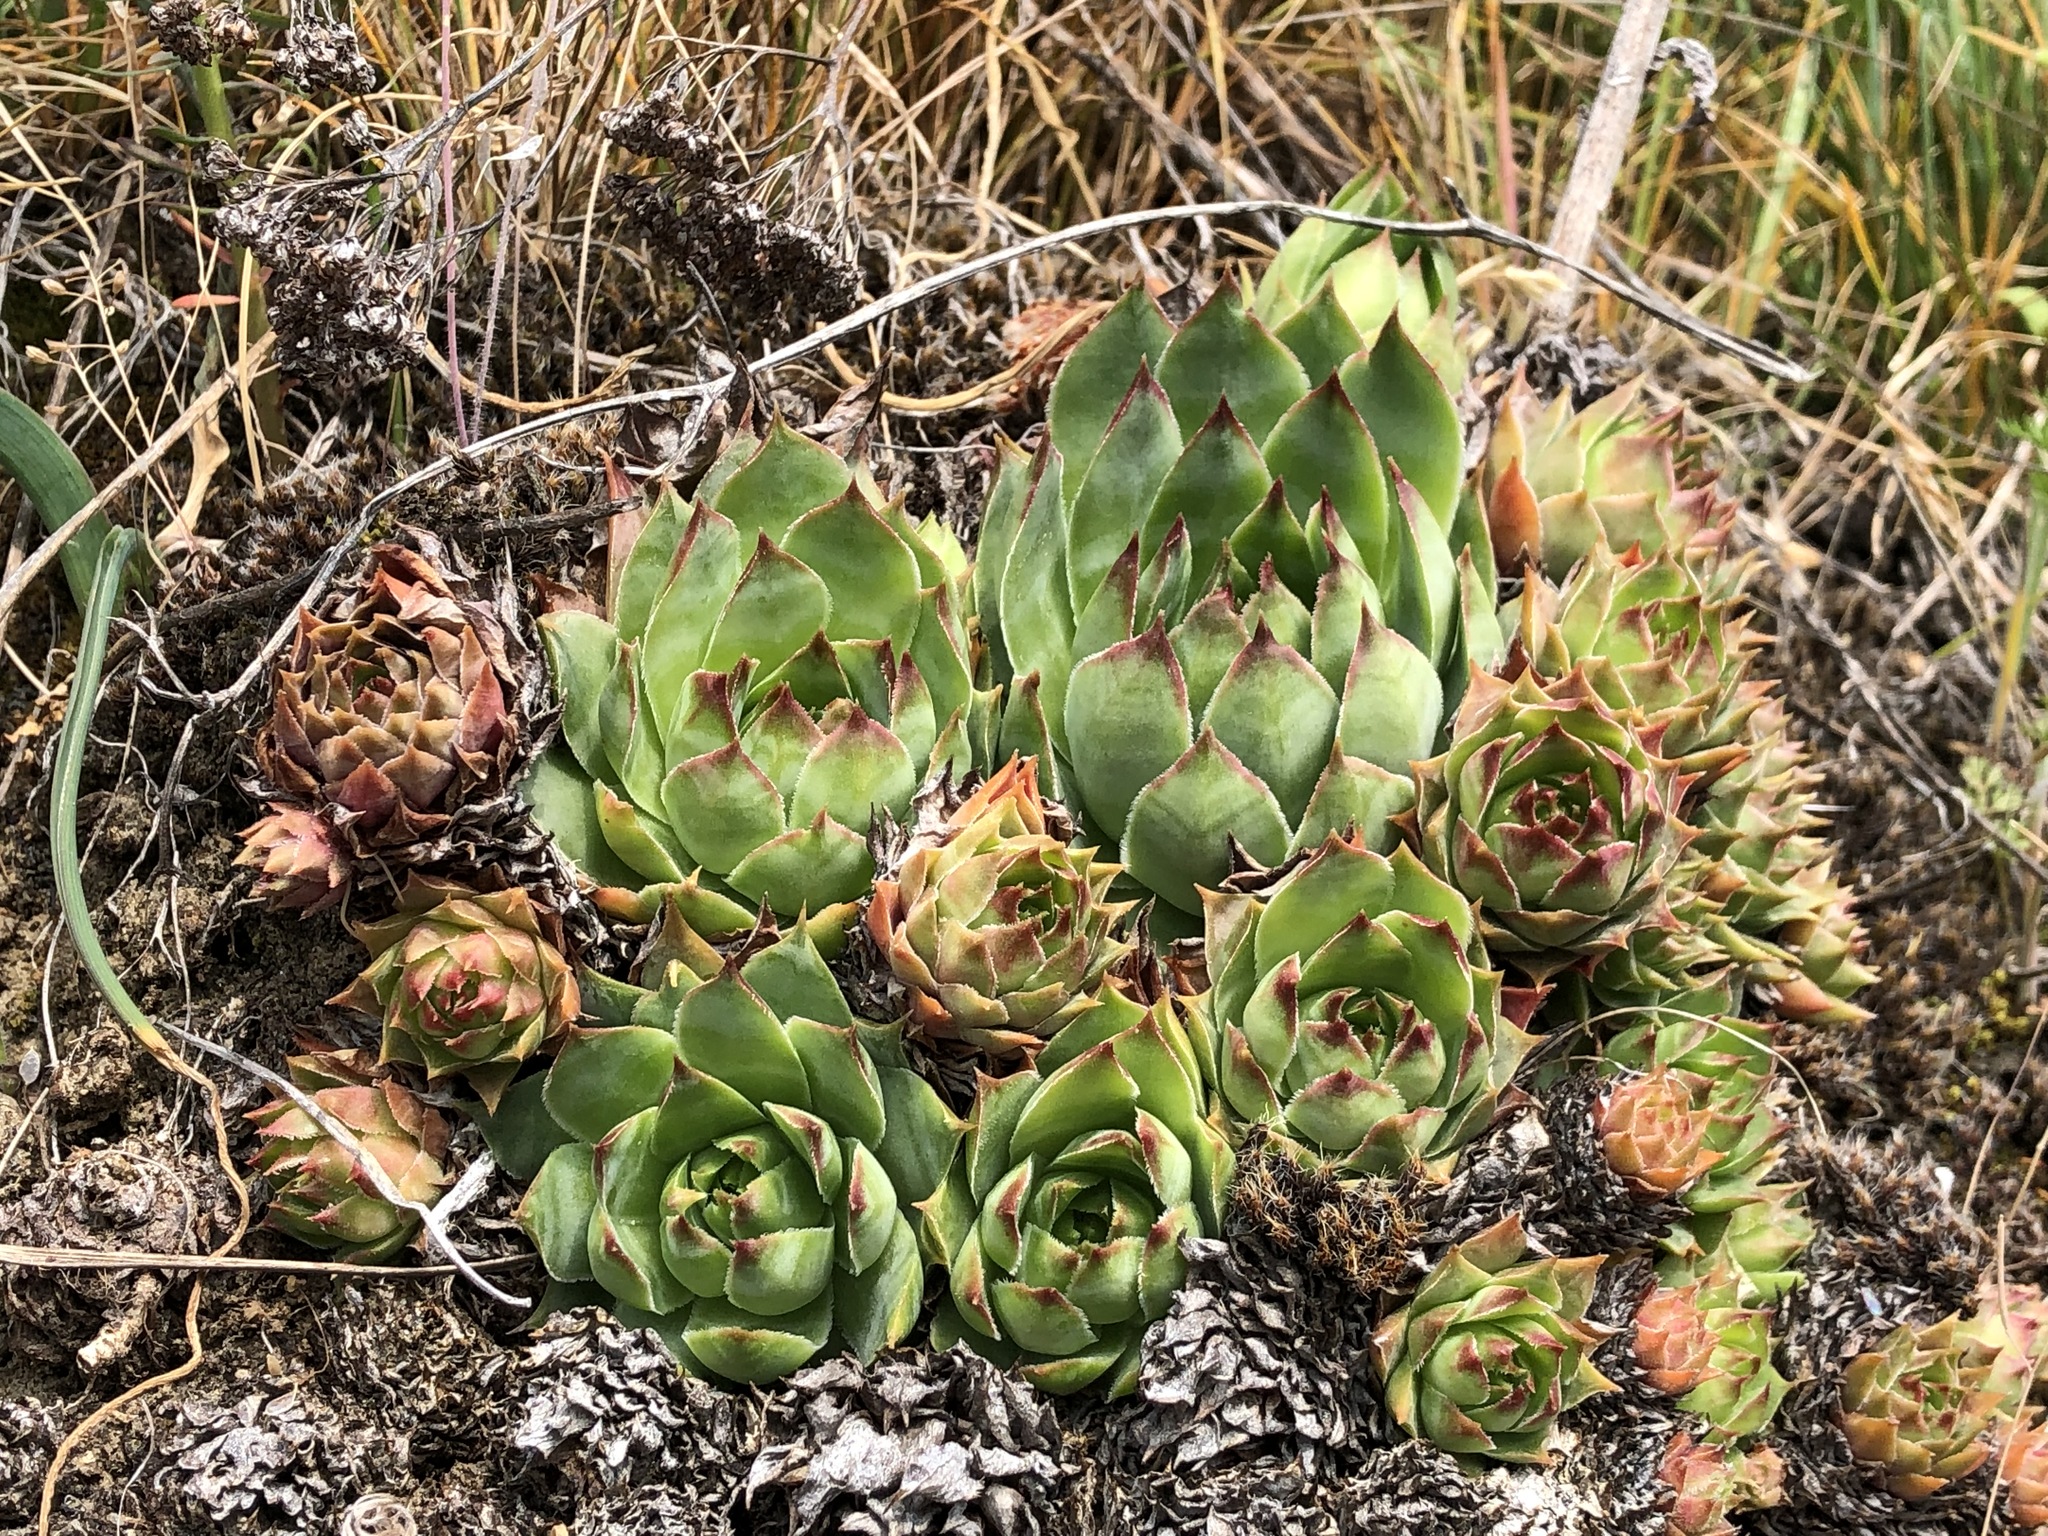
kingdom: Plantae
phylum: Tracheophyta
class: Magnoliopsida
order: Saxifragales
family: Crassulaceae
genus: Sempervivum
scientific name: Sempervivum tectorum
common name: House-leek
